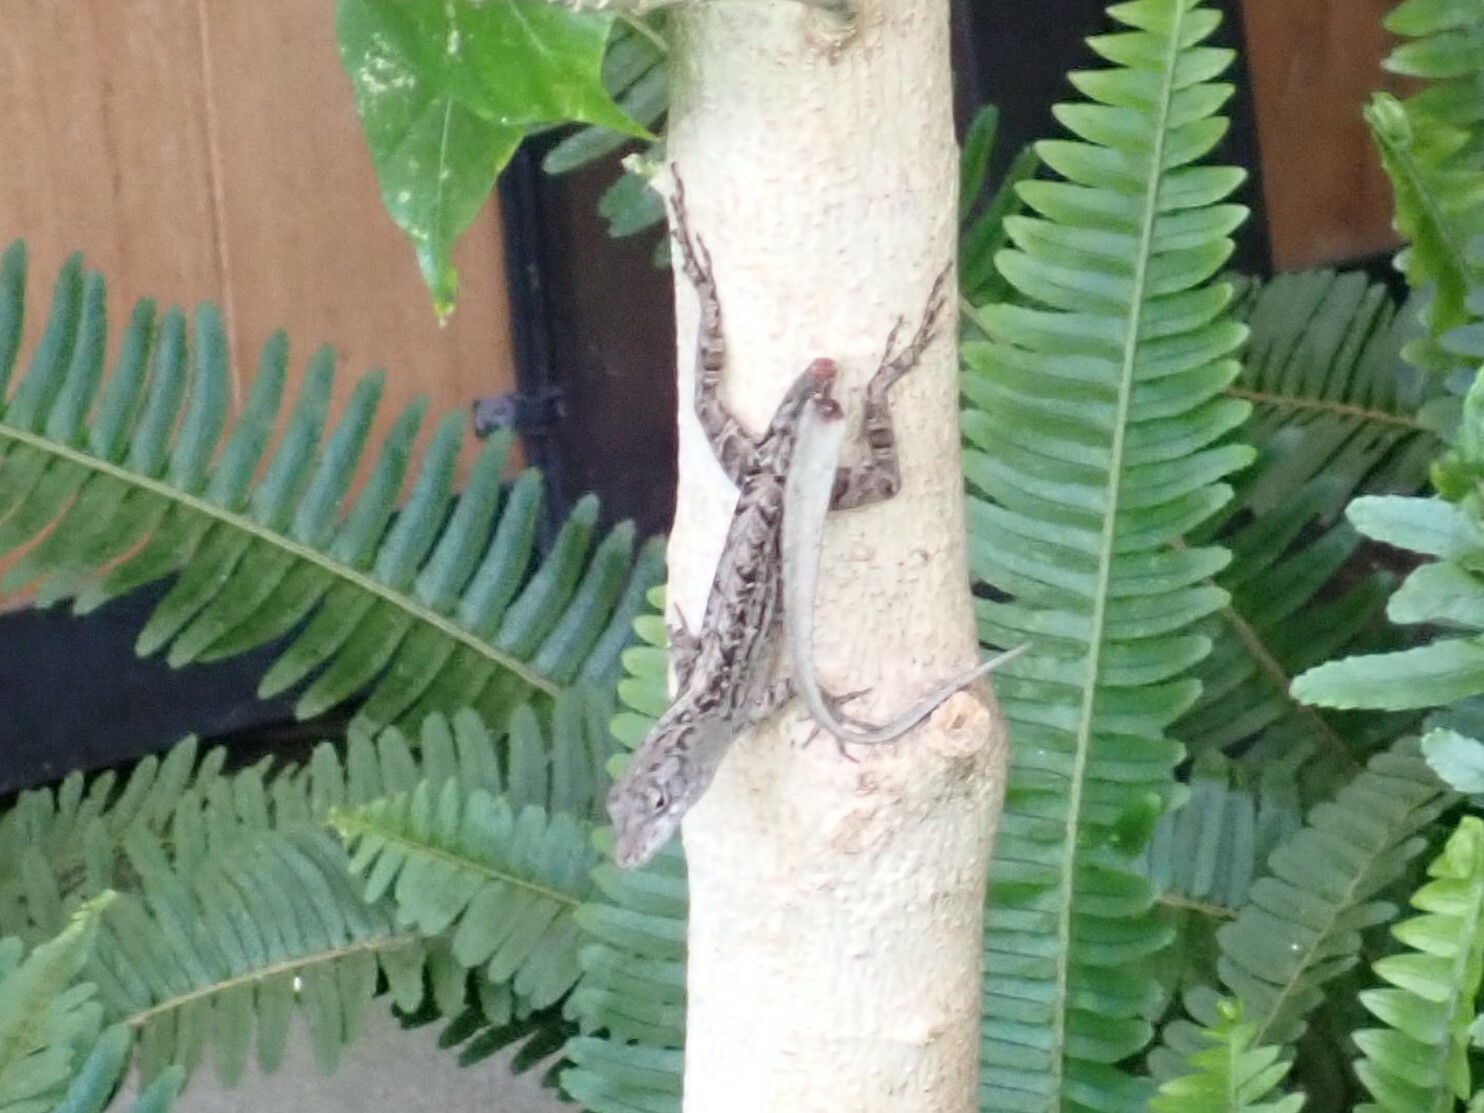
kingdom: Animalia
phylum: Chordata
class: Squamata
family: Dactyloidae
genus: Anolis
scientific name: Anolis sagrei
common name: Brown anole
